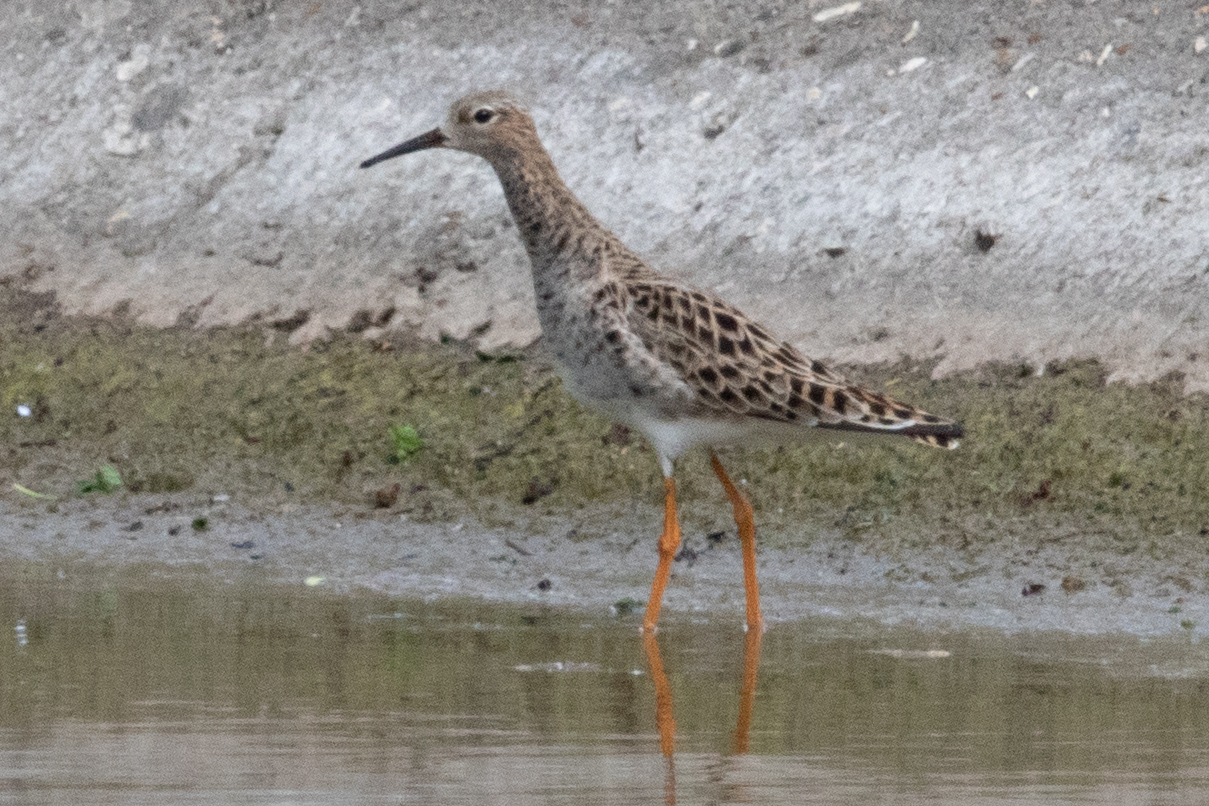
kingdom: Animalia
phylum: Chordata
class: Aves
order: Charadriiformes
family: Scolopacidae
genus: Calidris
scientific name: Calidris pugnax
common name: Ruff
